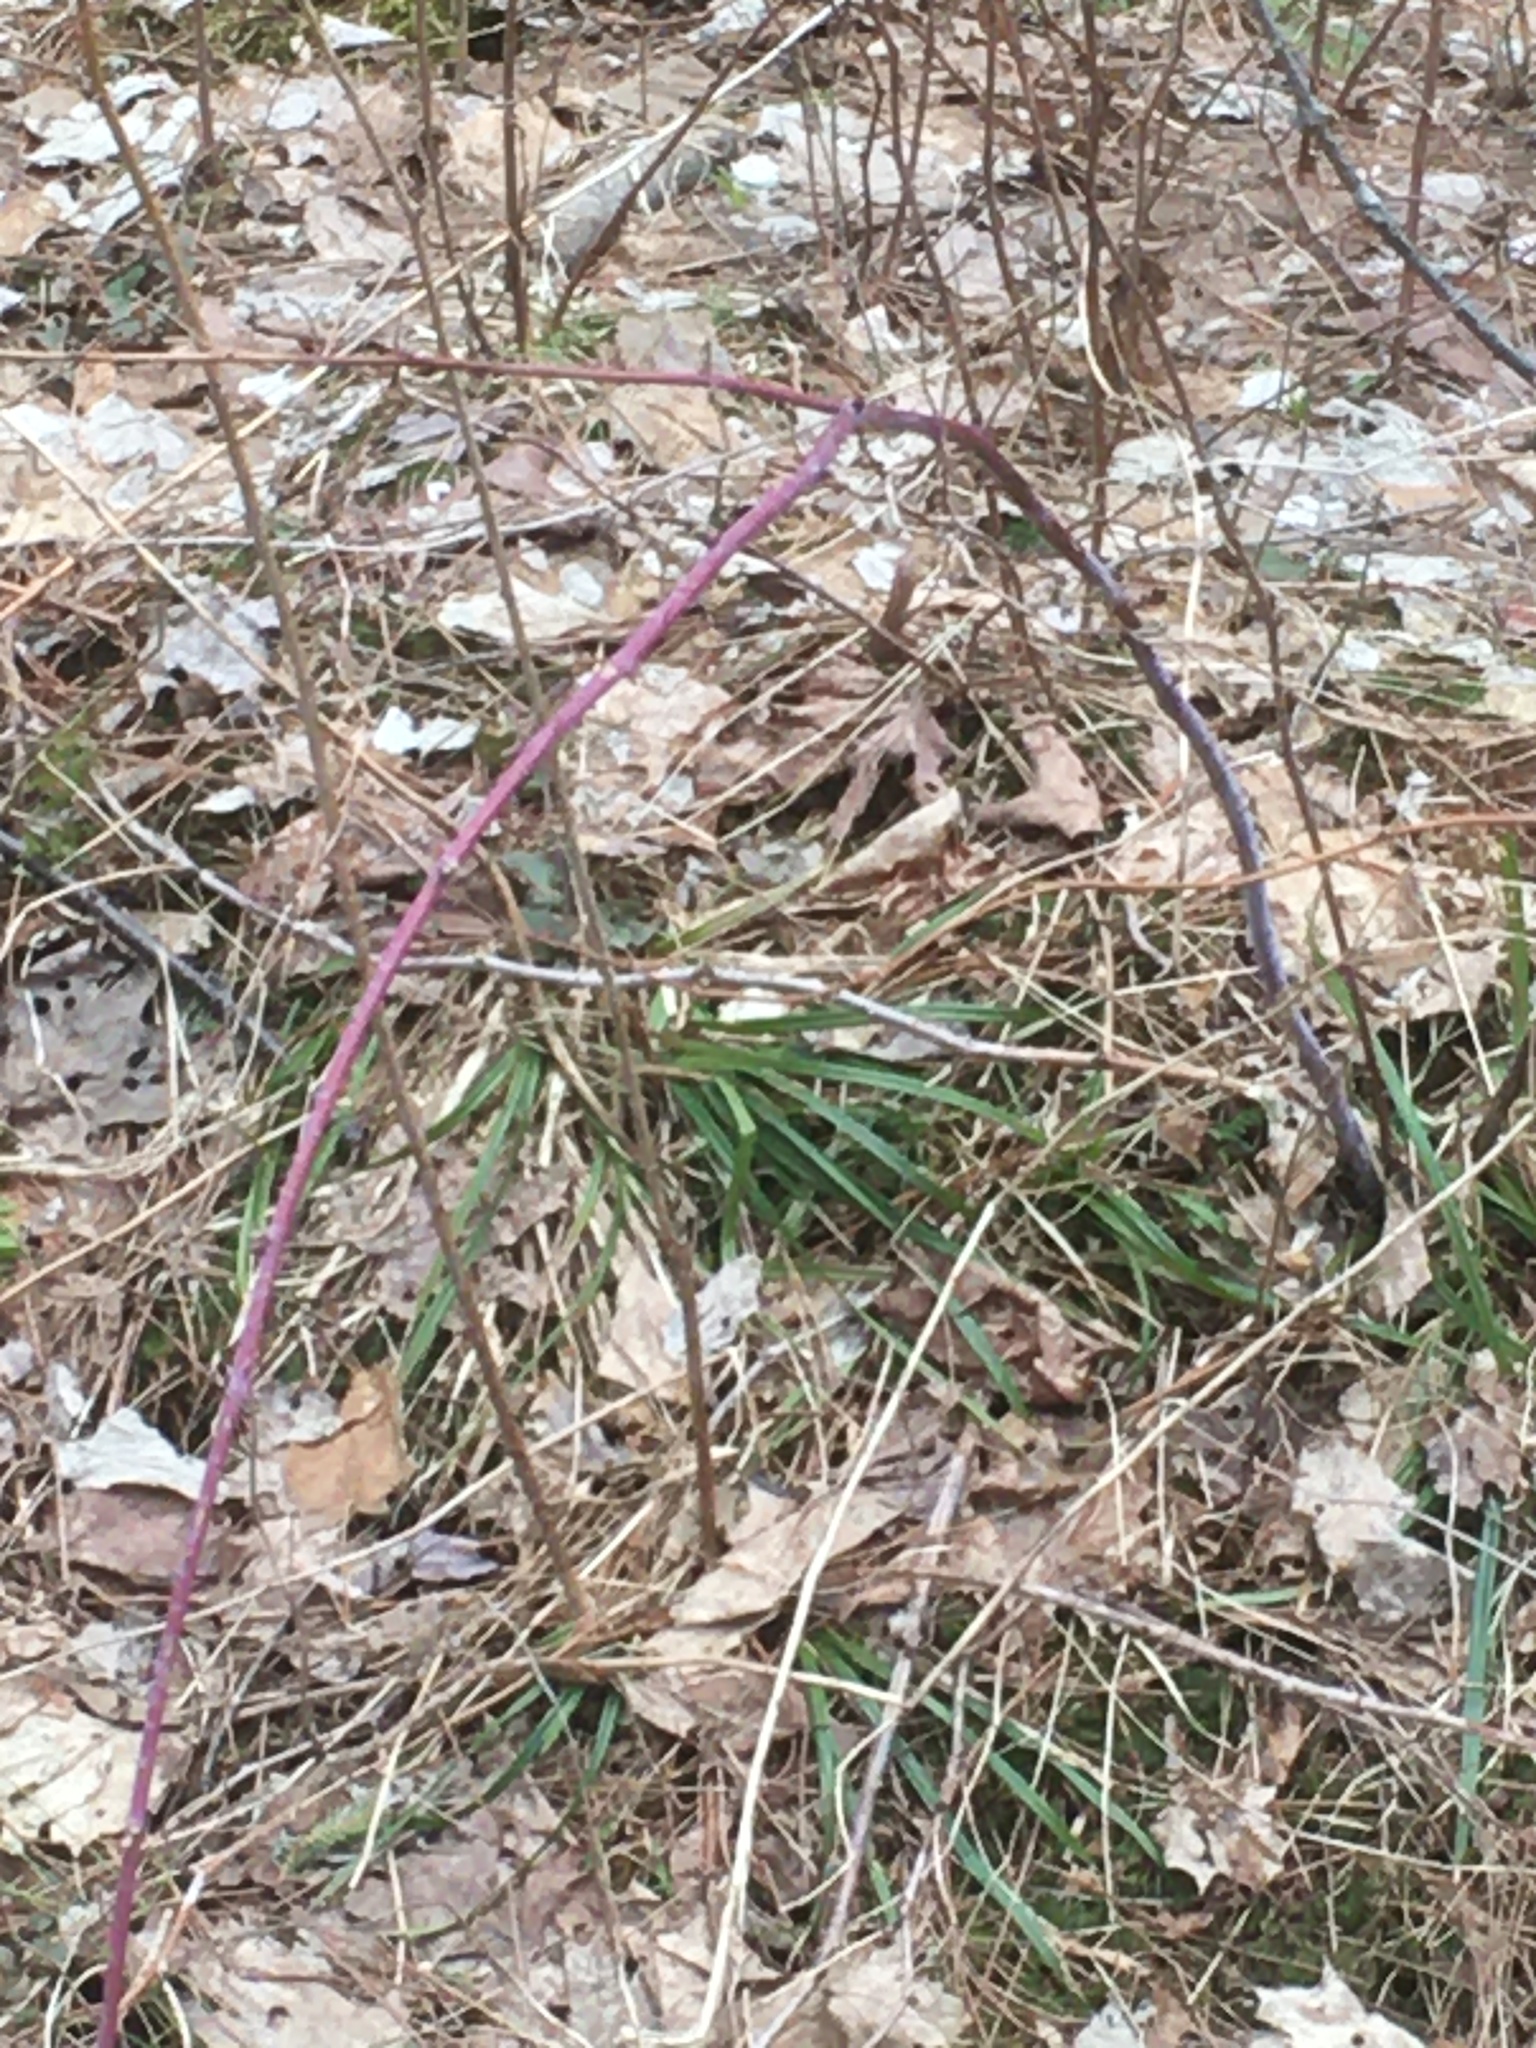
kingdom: Plantae
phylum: Tracheophyta
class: Magnoliopsida
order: Rosales
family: Rosaceae
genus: Rubus
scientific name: Rubus occidentalis
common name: Black raspberry
